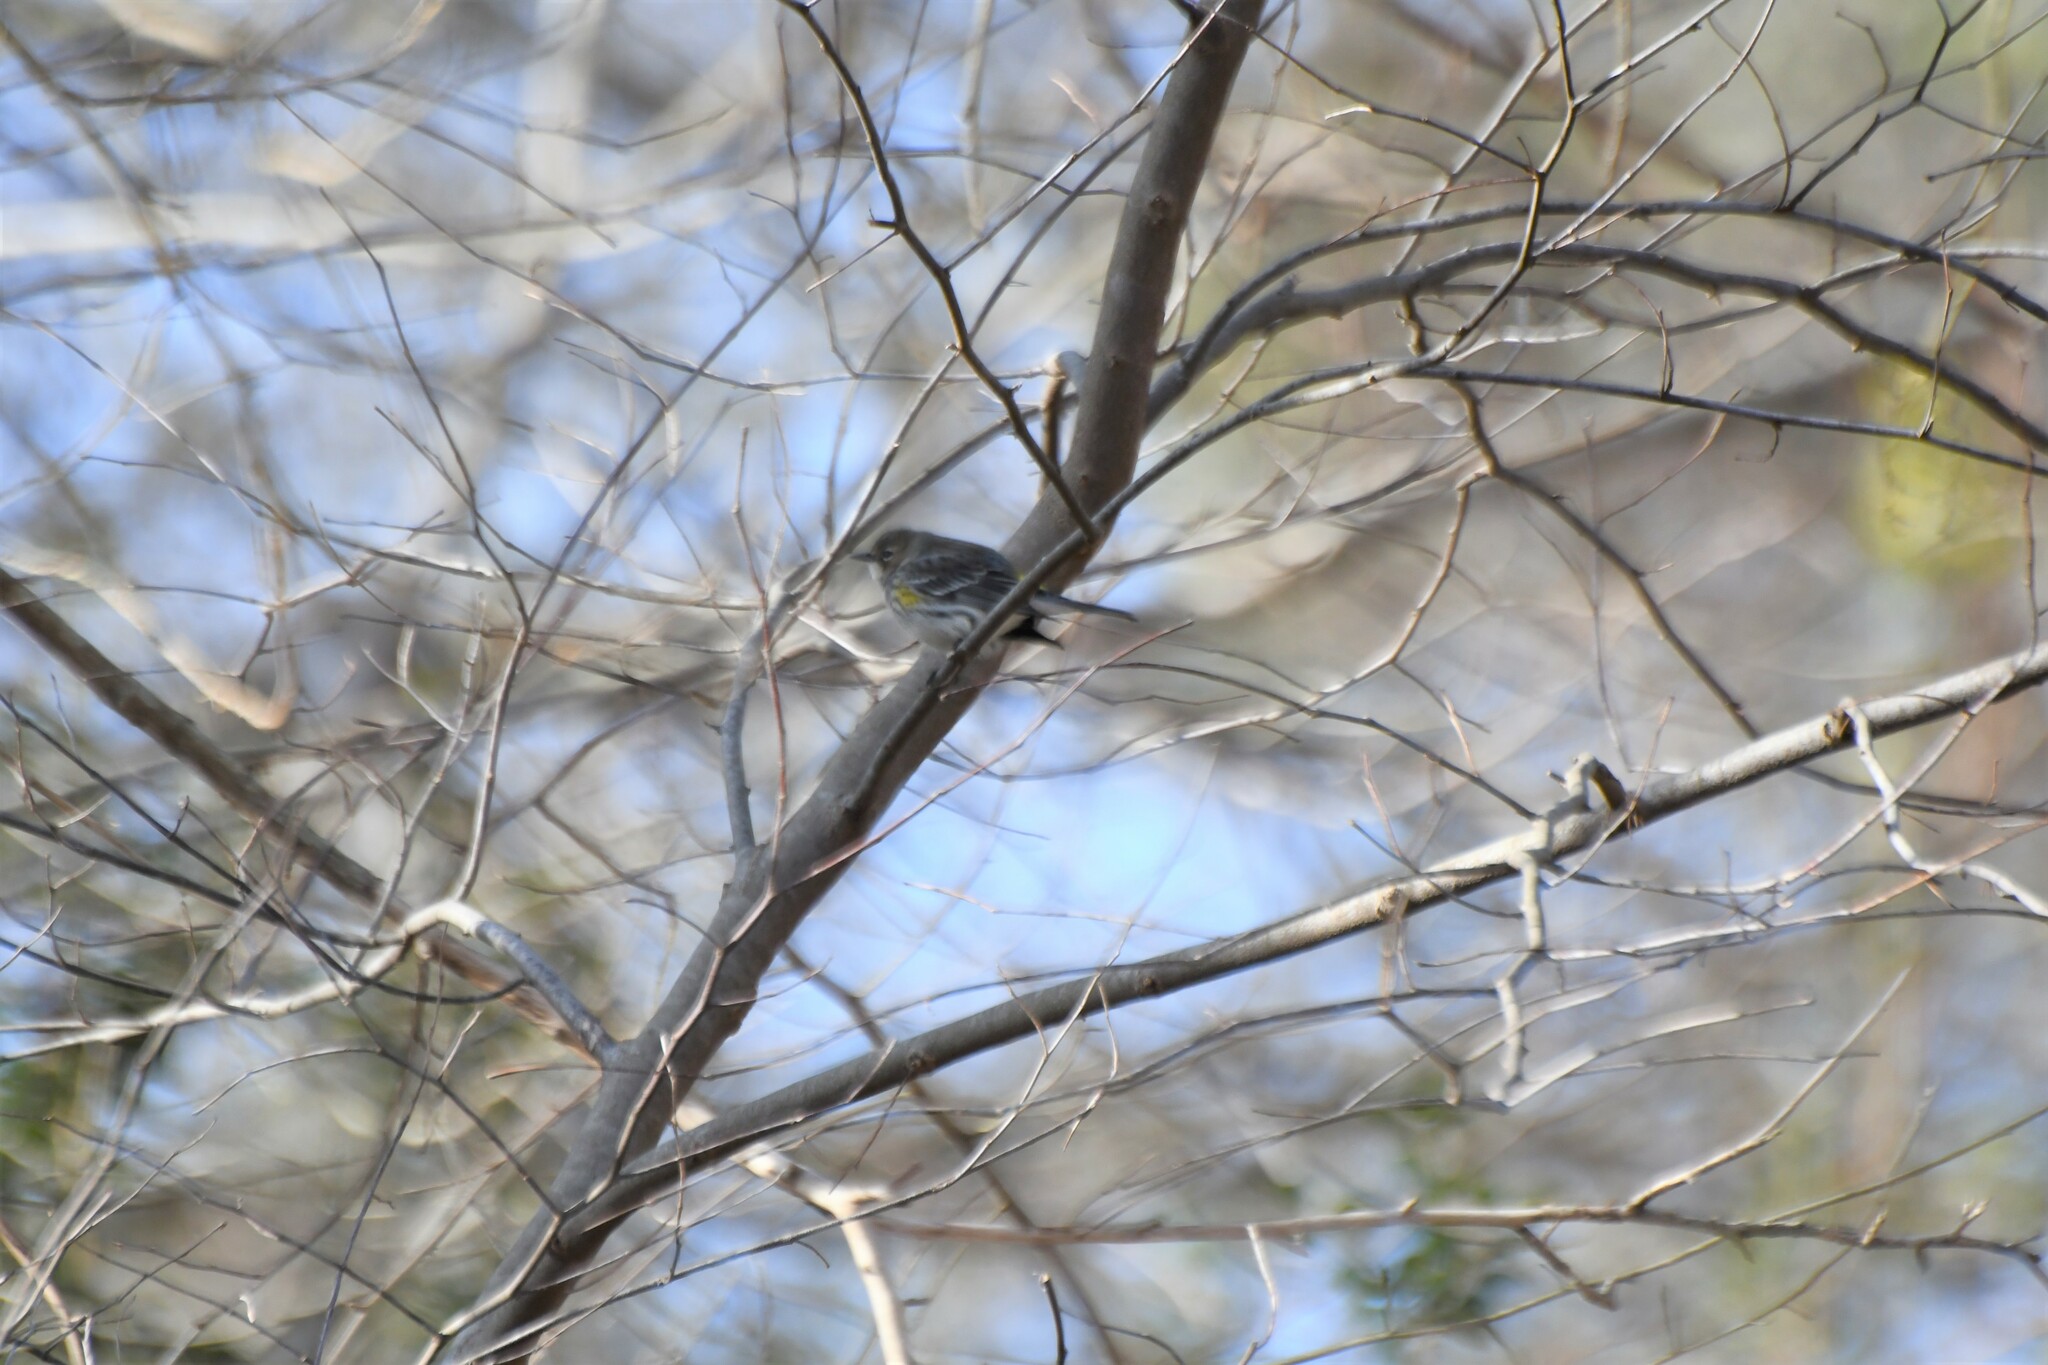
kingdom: Animalia
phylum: Chordata
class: Aves
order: Passeriformes
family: Parulidae
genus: Setophaga
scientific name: Setophaga coronata
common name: Myrtle warbler
